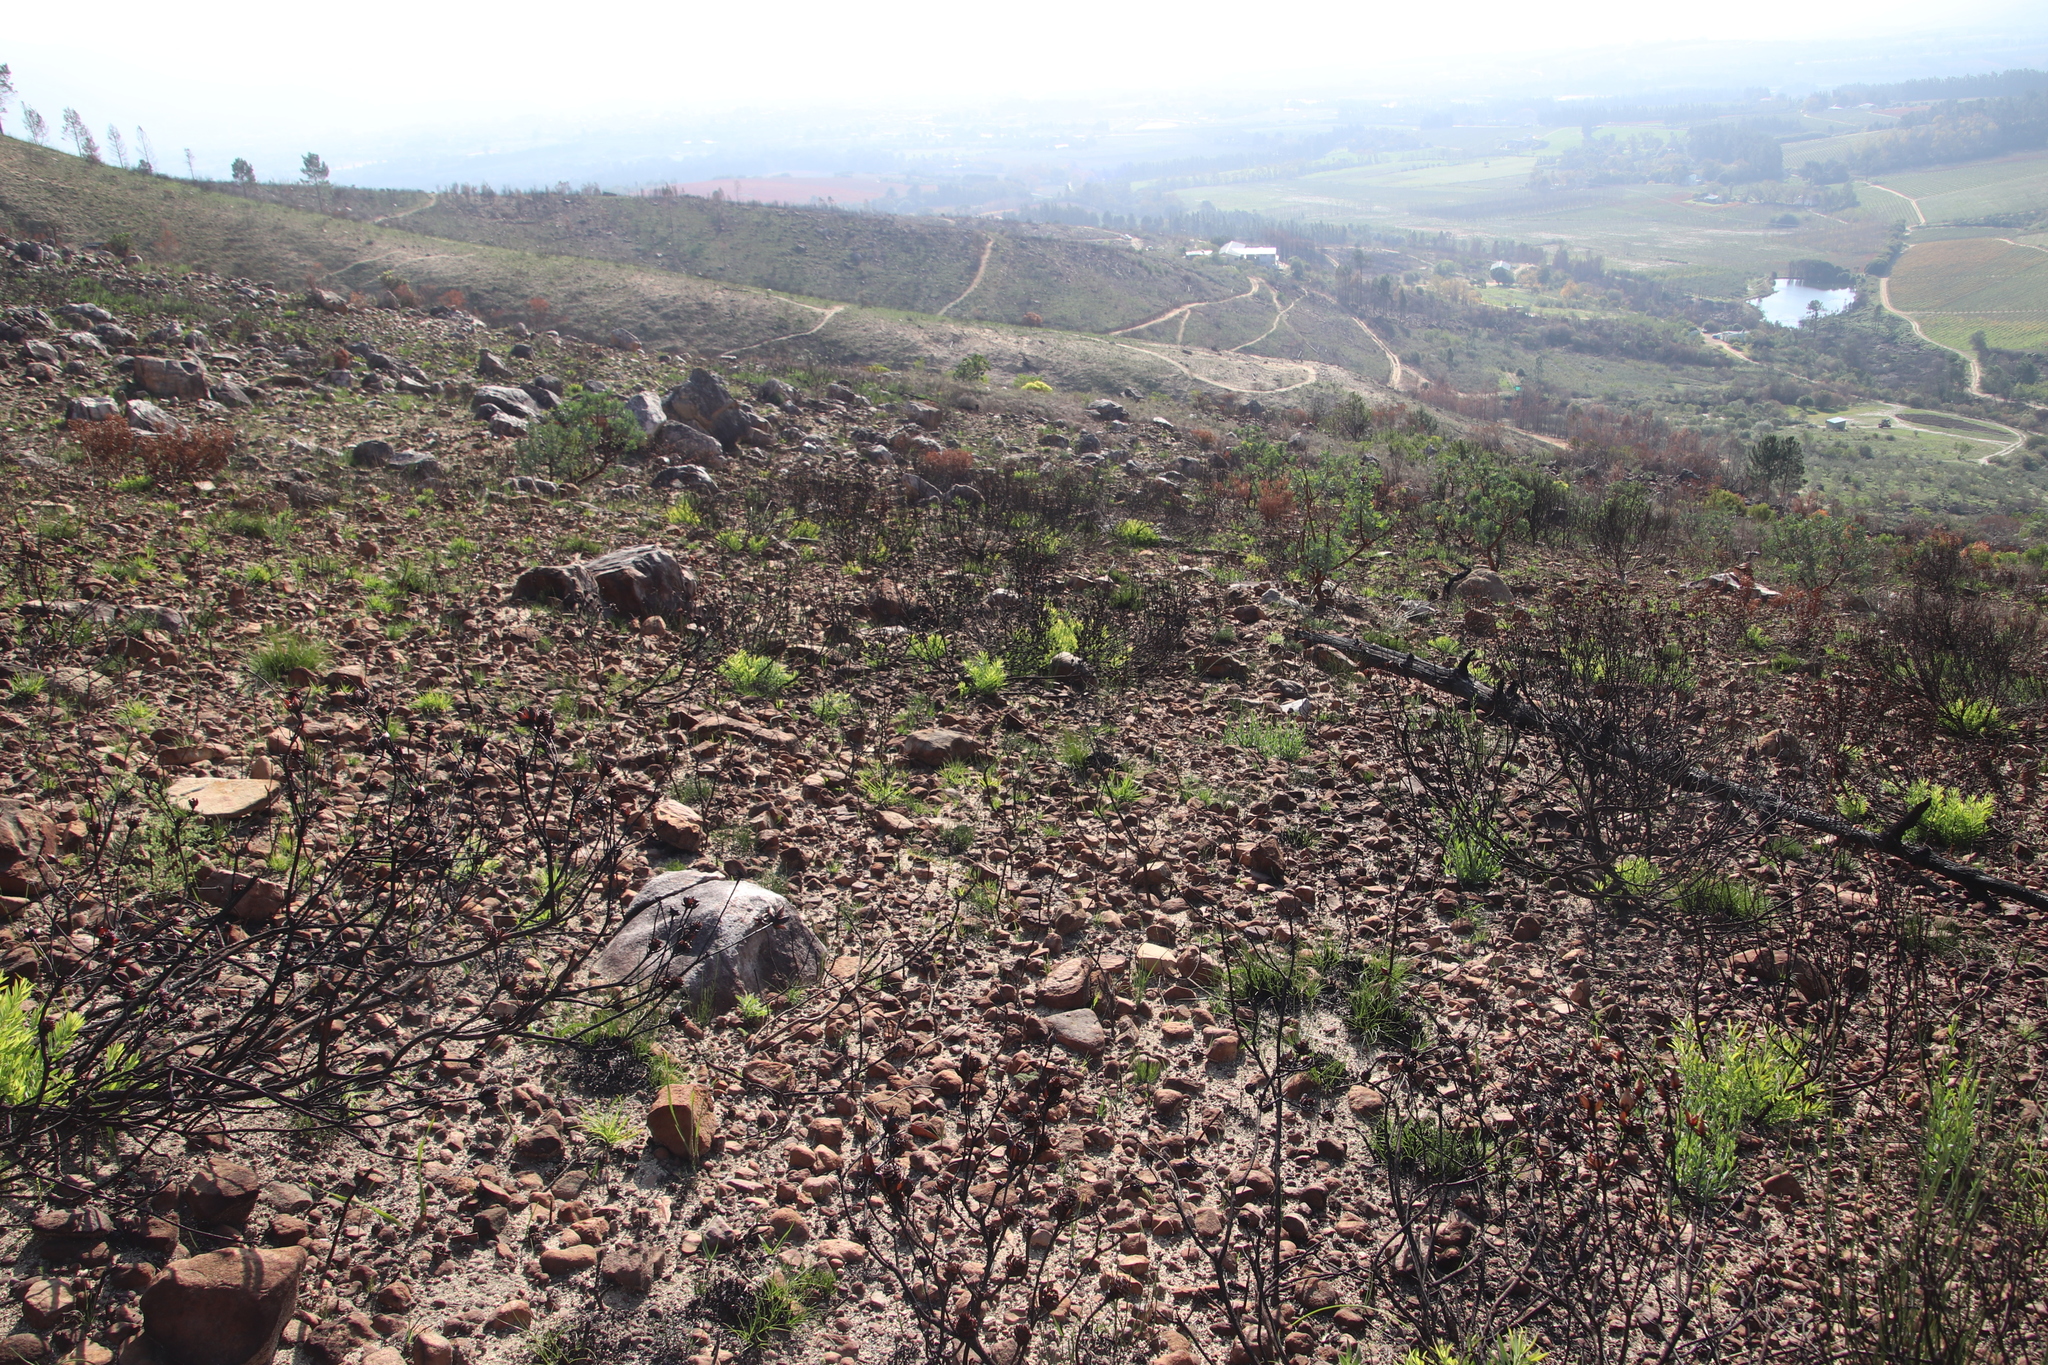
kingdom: Plantae
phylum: Tracheophyta
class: Magnoliopsida
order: Proteales
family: Proteaceae
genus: Leucadendron
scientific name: Leucadendron salignum
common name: Common sunshine conebush
